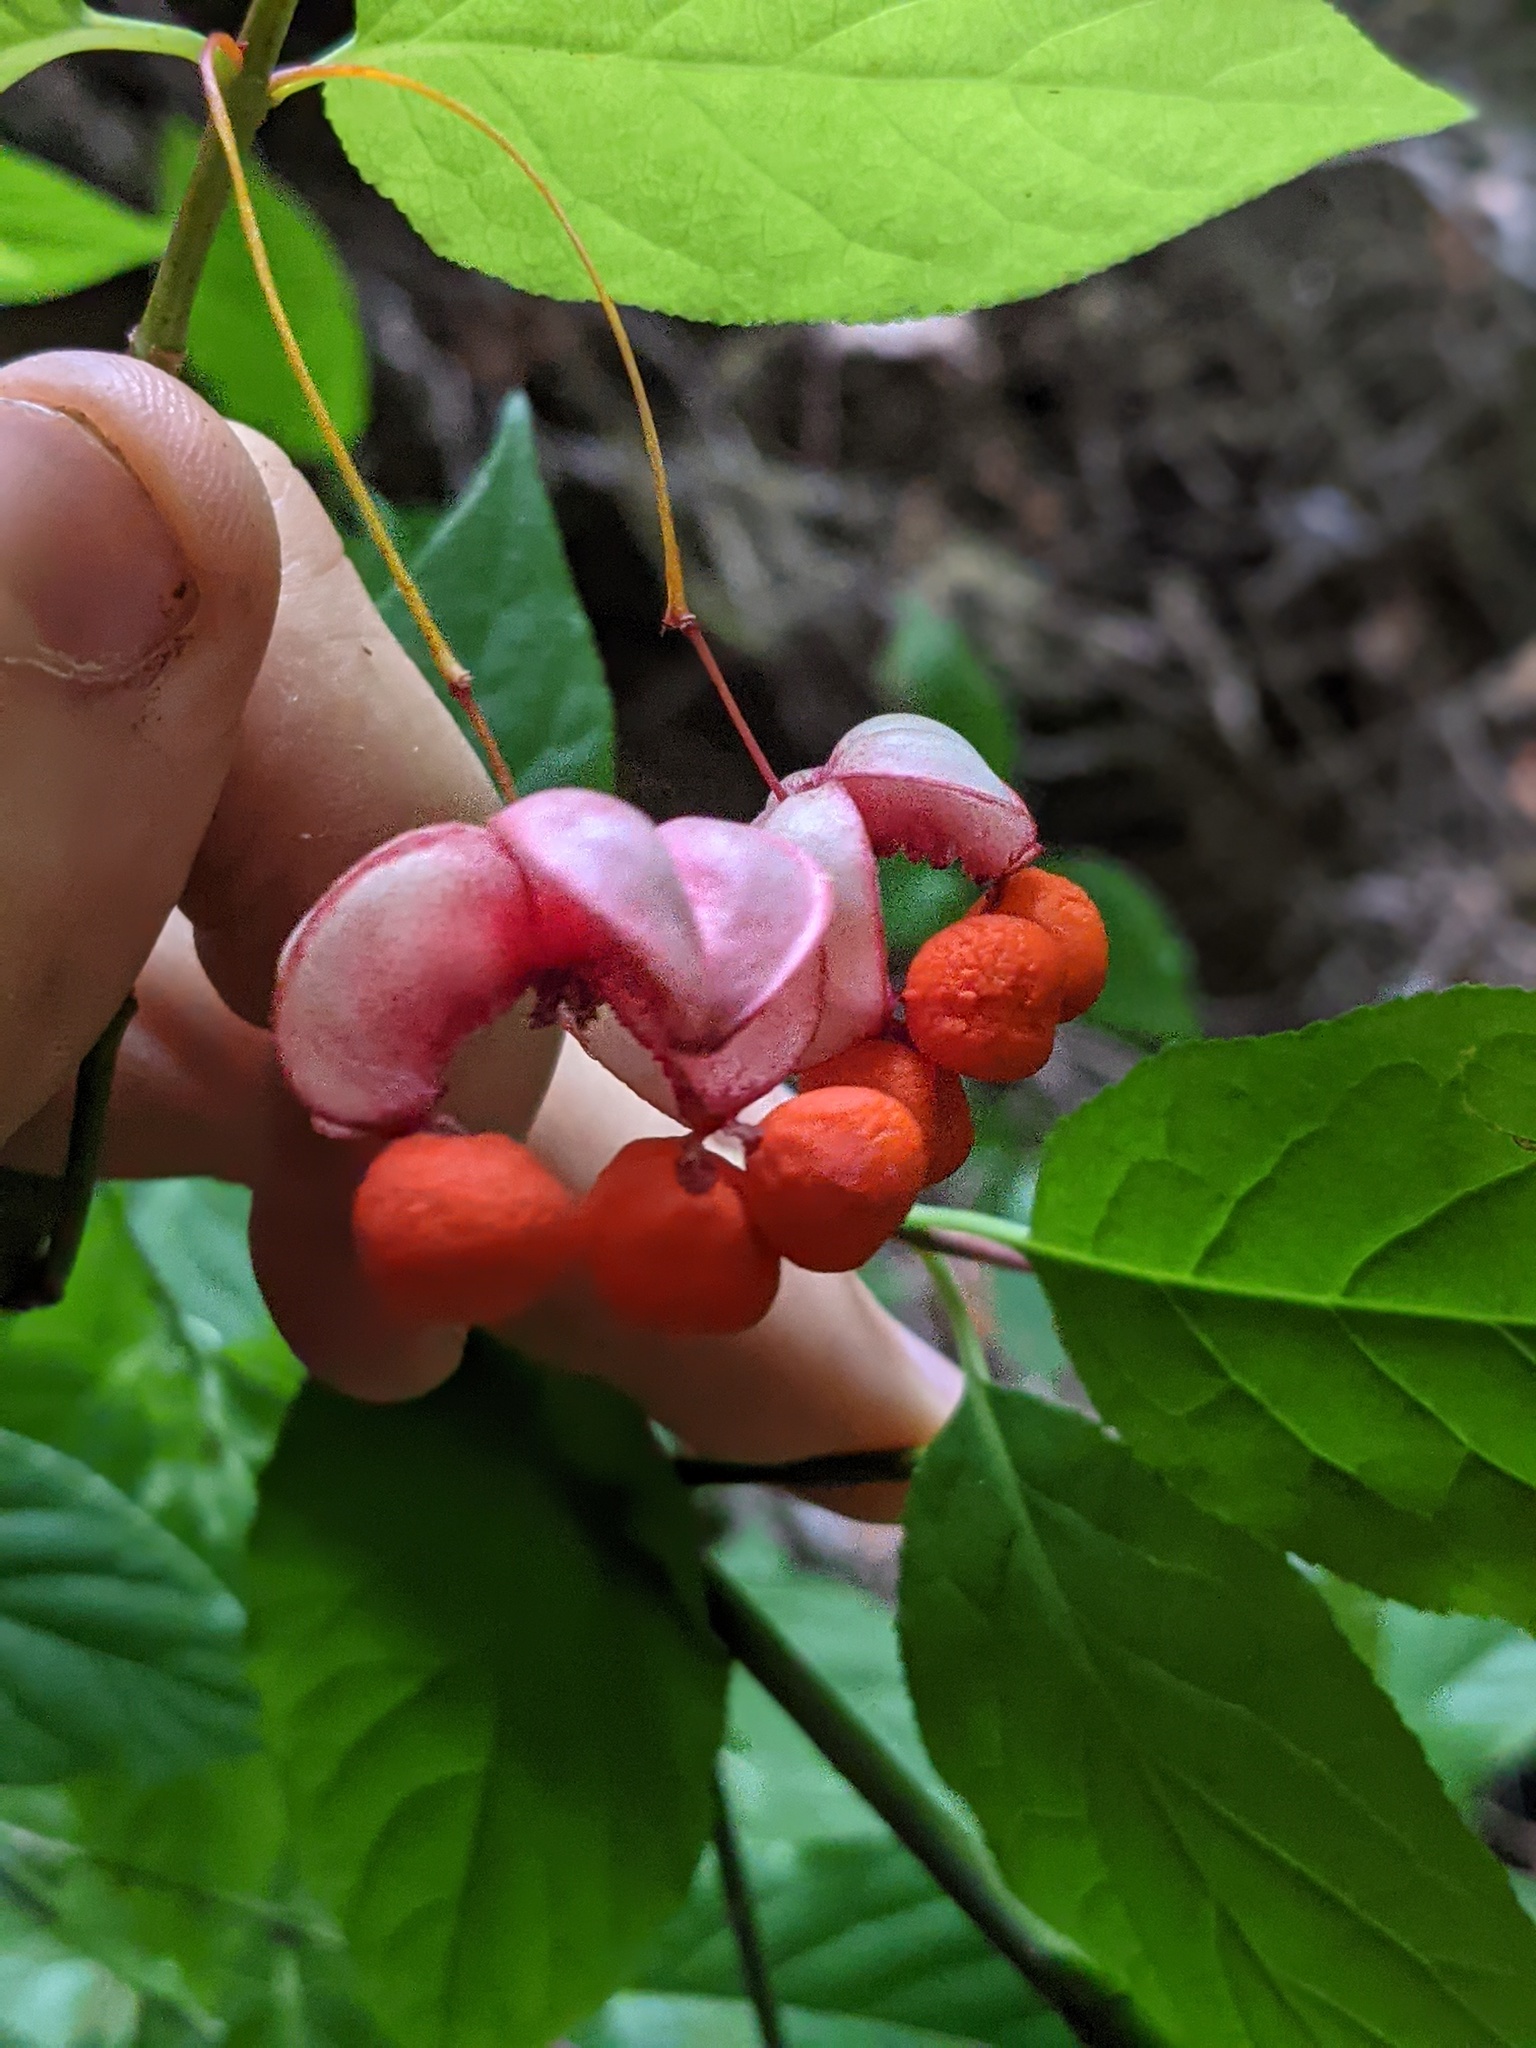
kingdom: Plantae
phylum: Tracheophyta
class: Magnoliopsida
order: Celastrales
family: Celastraceae
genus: Euonymus
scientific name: Euonymus occidentalis
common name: Western burningbush
